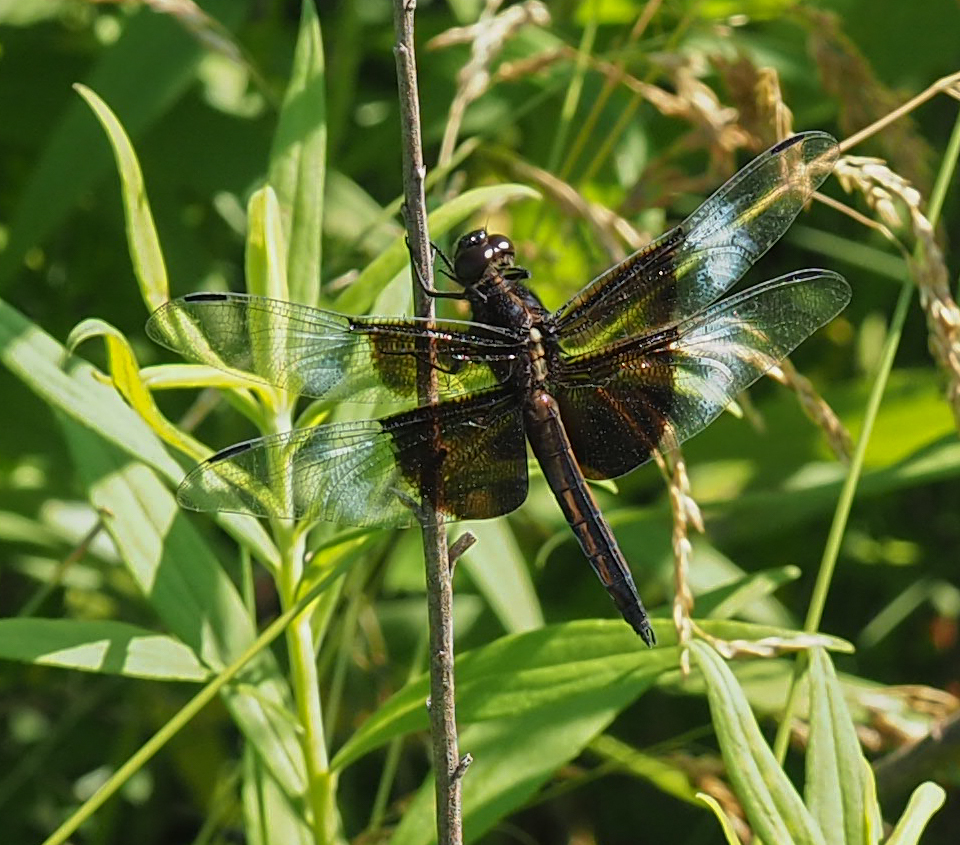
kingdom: Animalia
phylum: Arthropoda
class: Insecta
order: Odonata
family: Libellulidae
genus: Libellula
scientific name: Libellula luctuosa
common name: Widow skimmer
